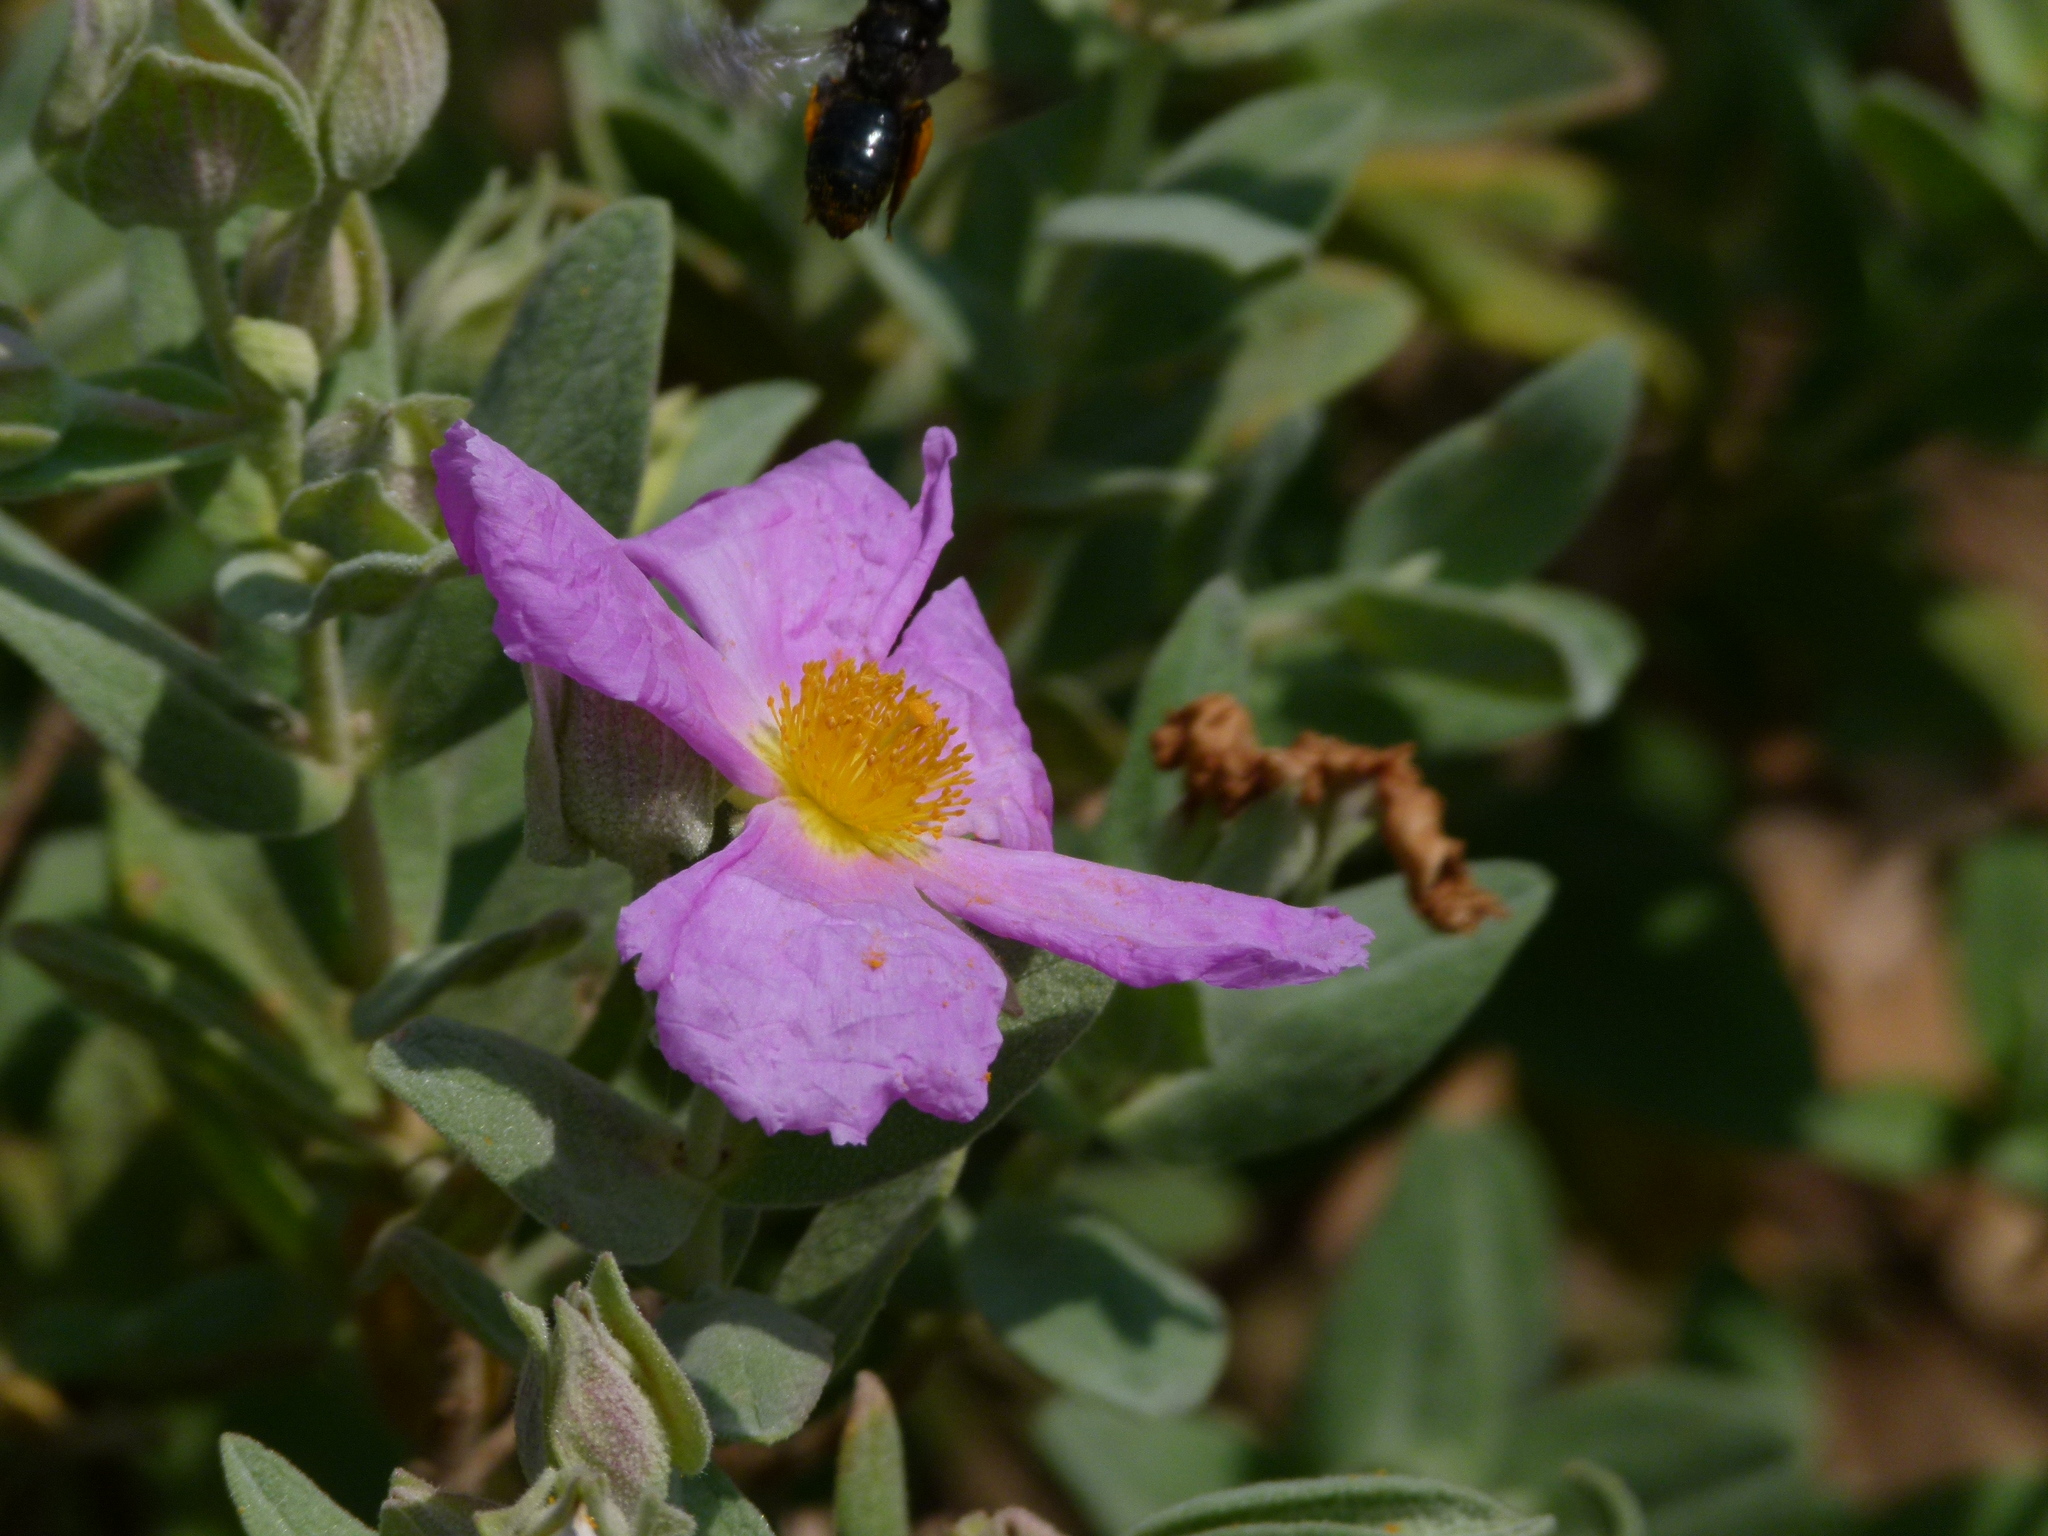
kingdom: Plantae
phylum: Tracheophyta
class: Magnoliopsida
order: Malvales
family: Cistaceae
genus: Cistus
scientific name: Cistus albidus
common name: White-leaf rock-rose
